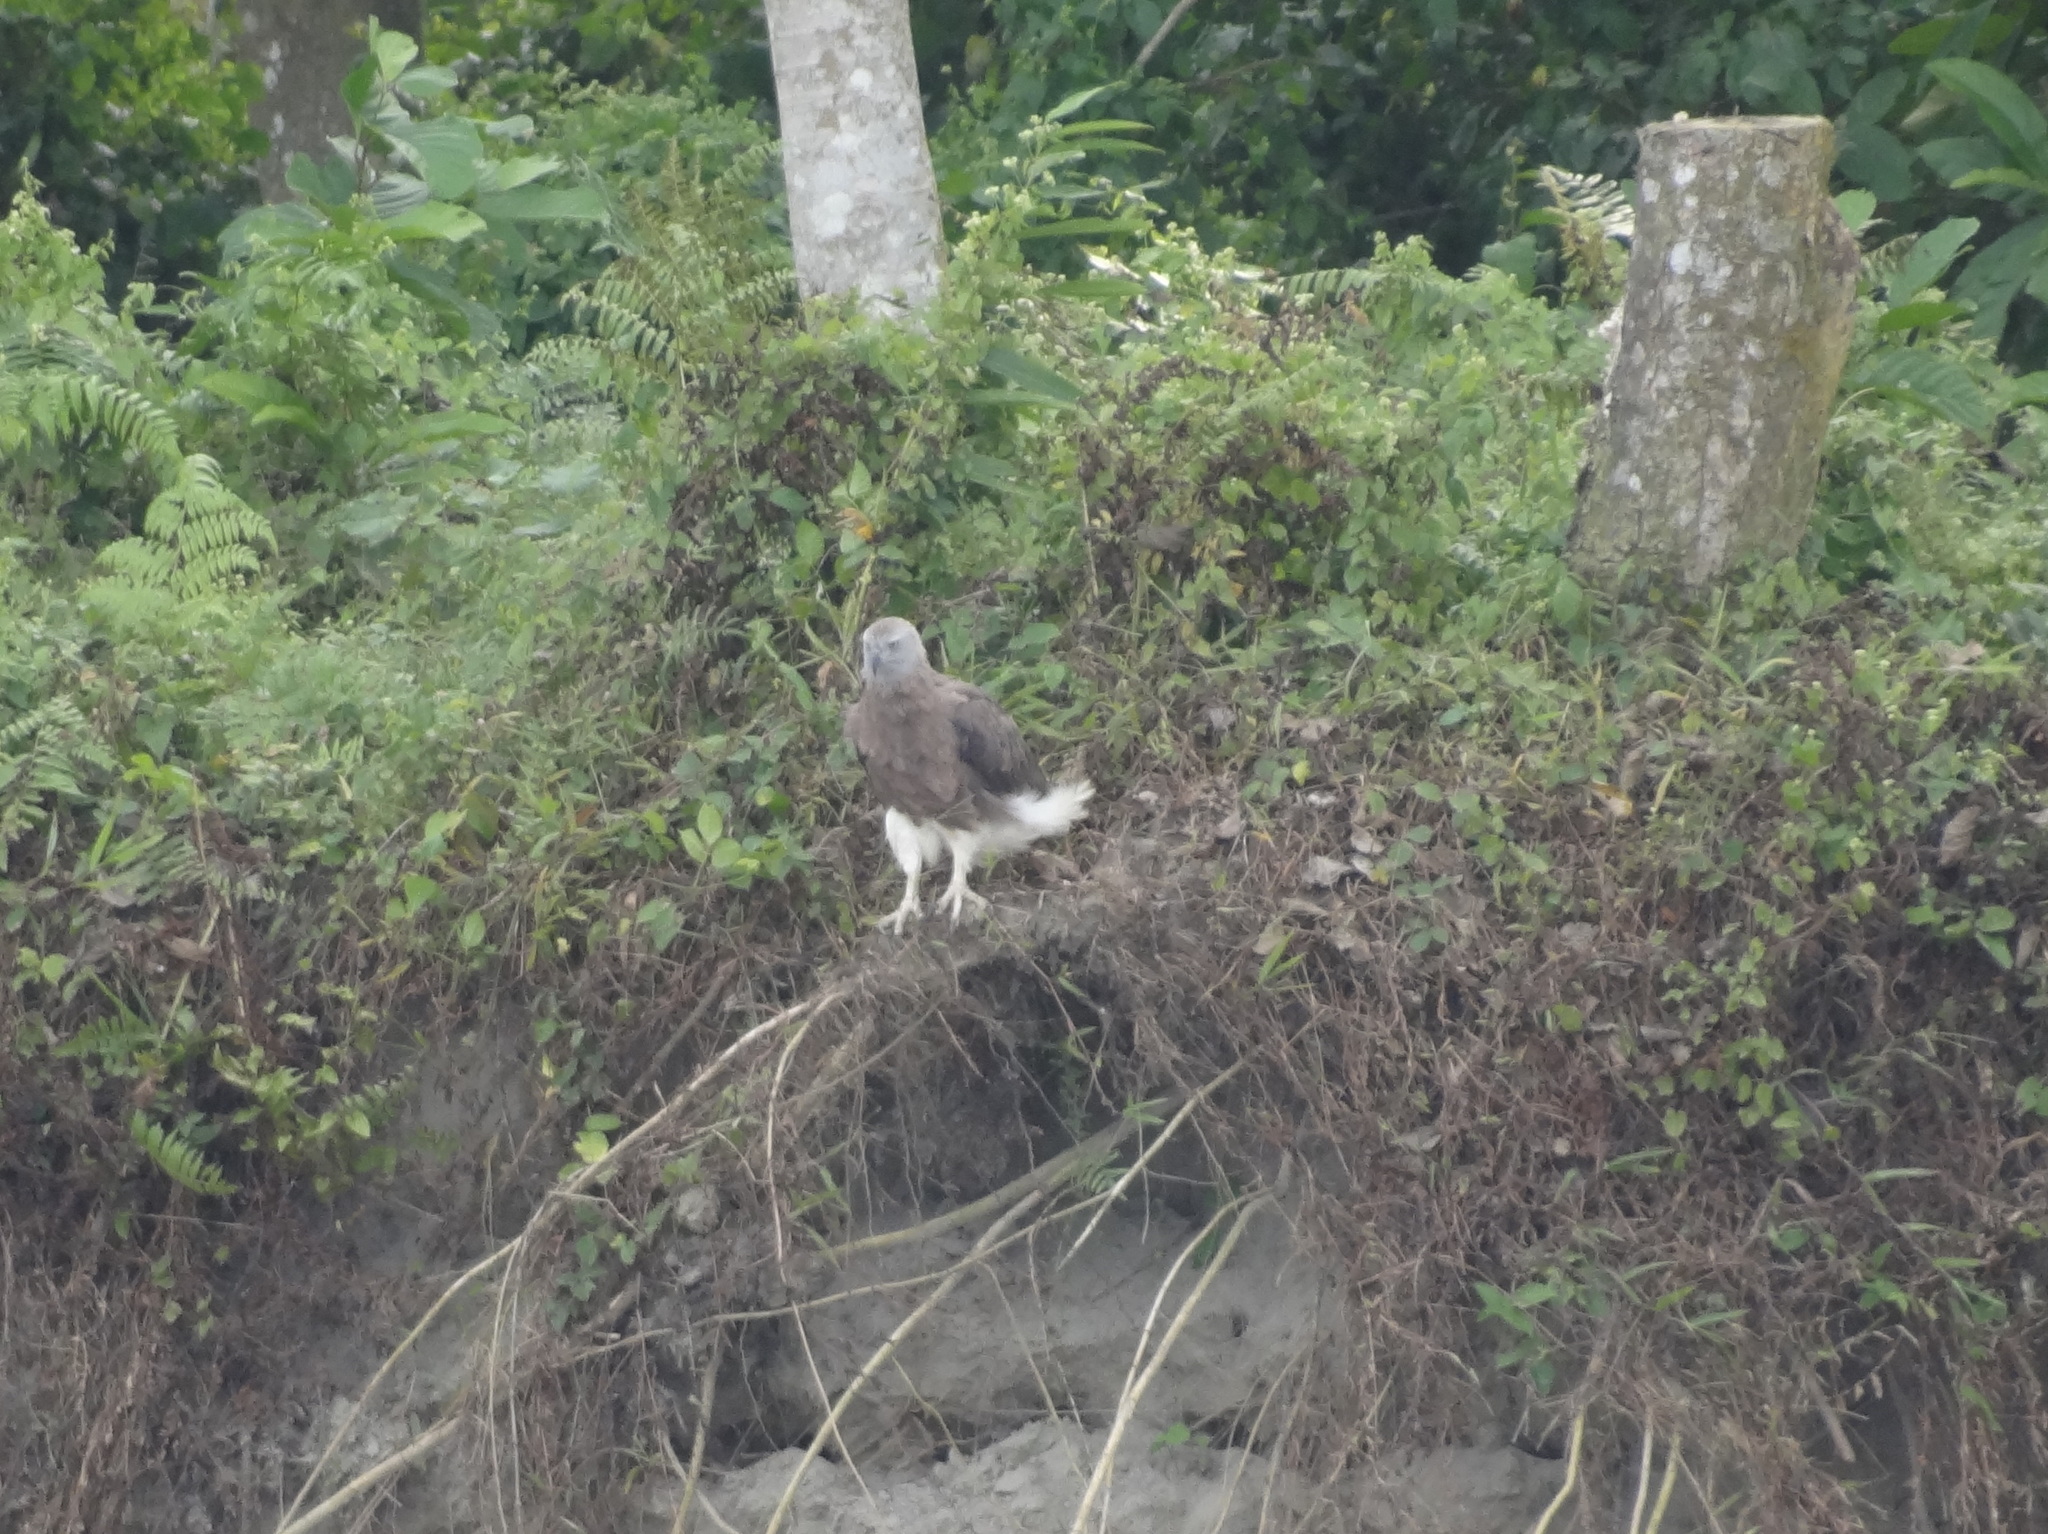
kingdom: Animalia
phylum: Chordata
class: Aves
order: Accipitriformes
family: Accipitridae
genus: Icthyophaga
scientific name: Icthyophaga ichthyaetus
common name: Grey-headed fish eagle
